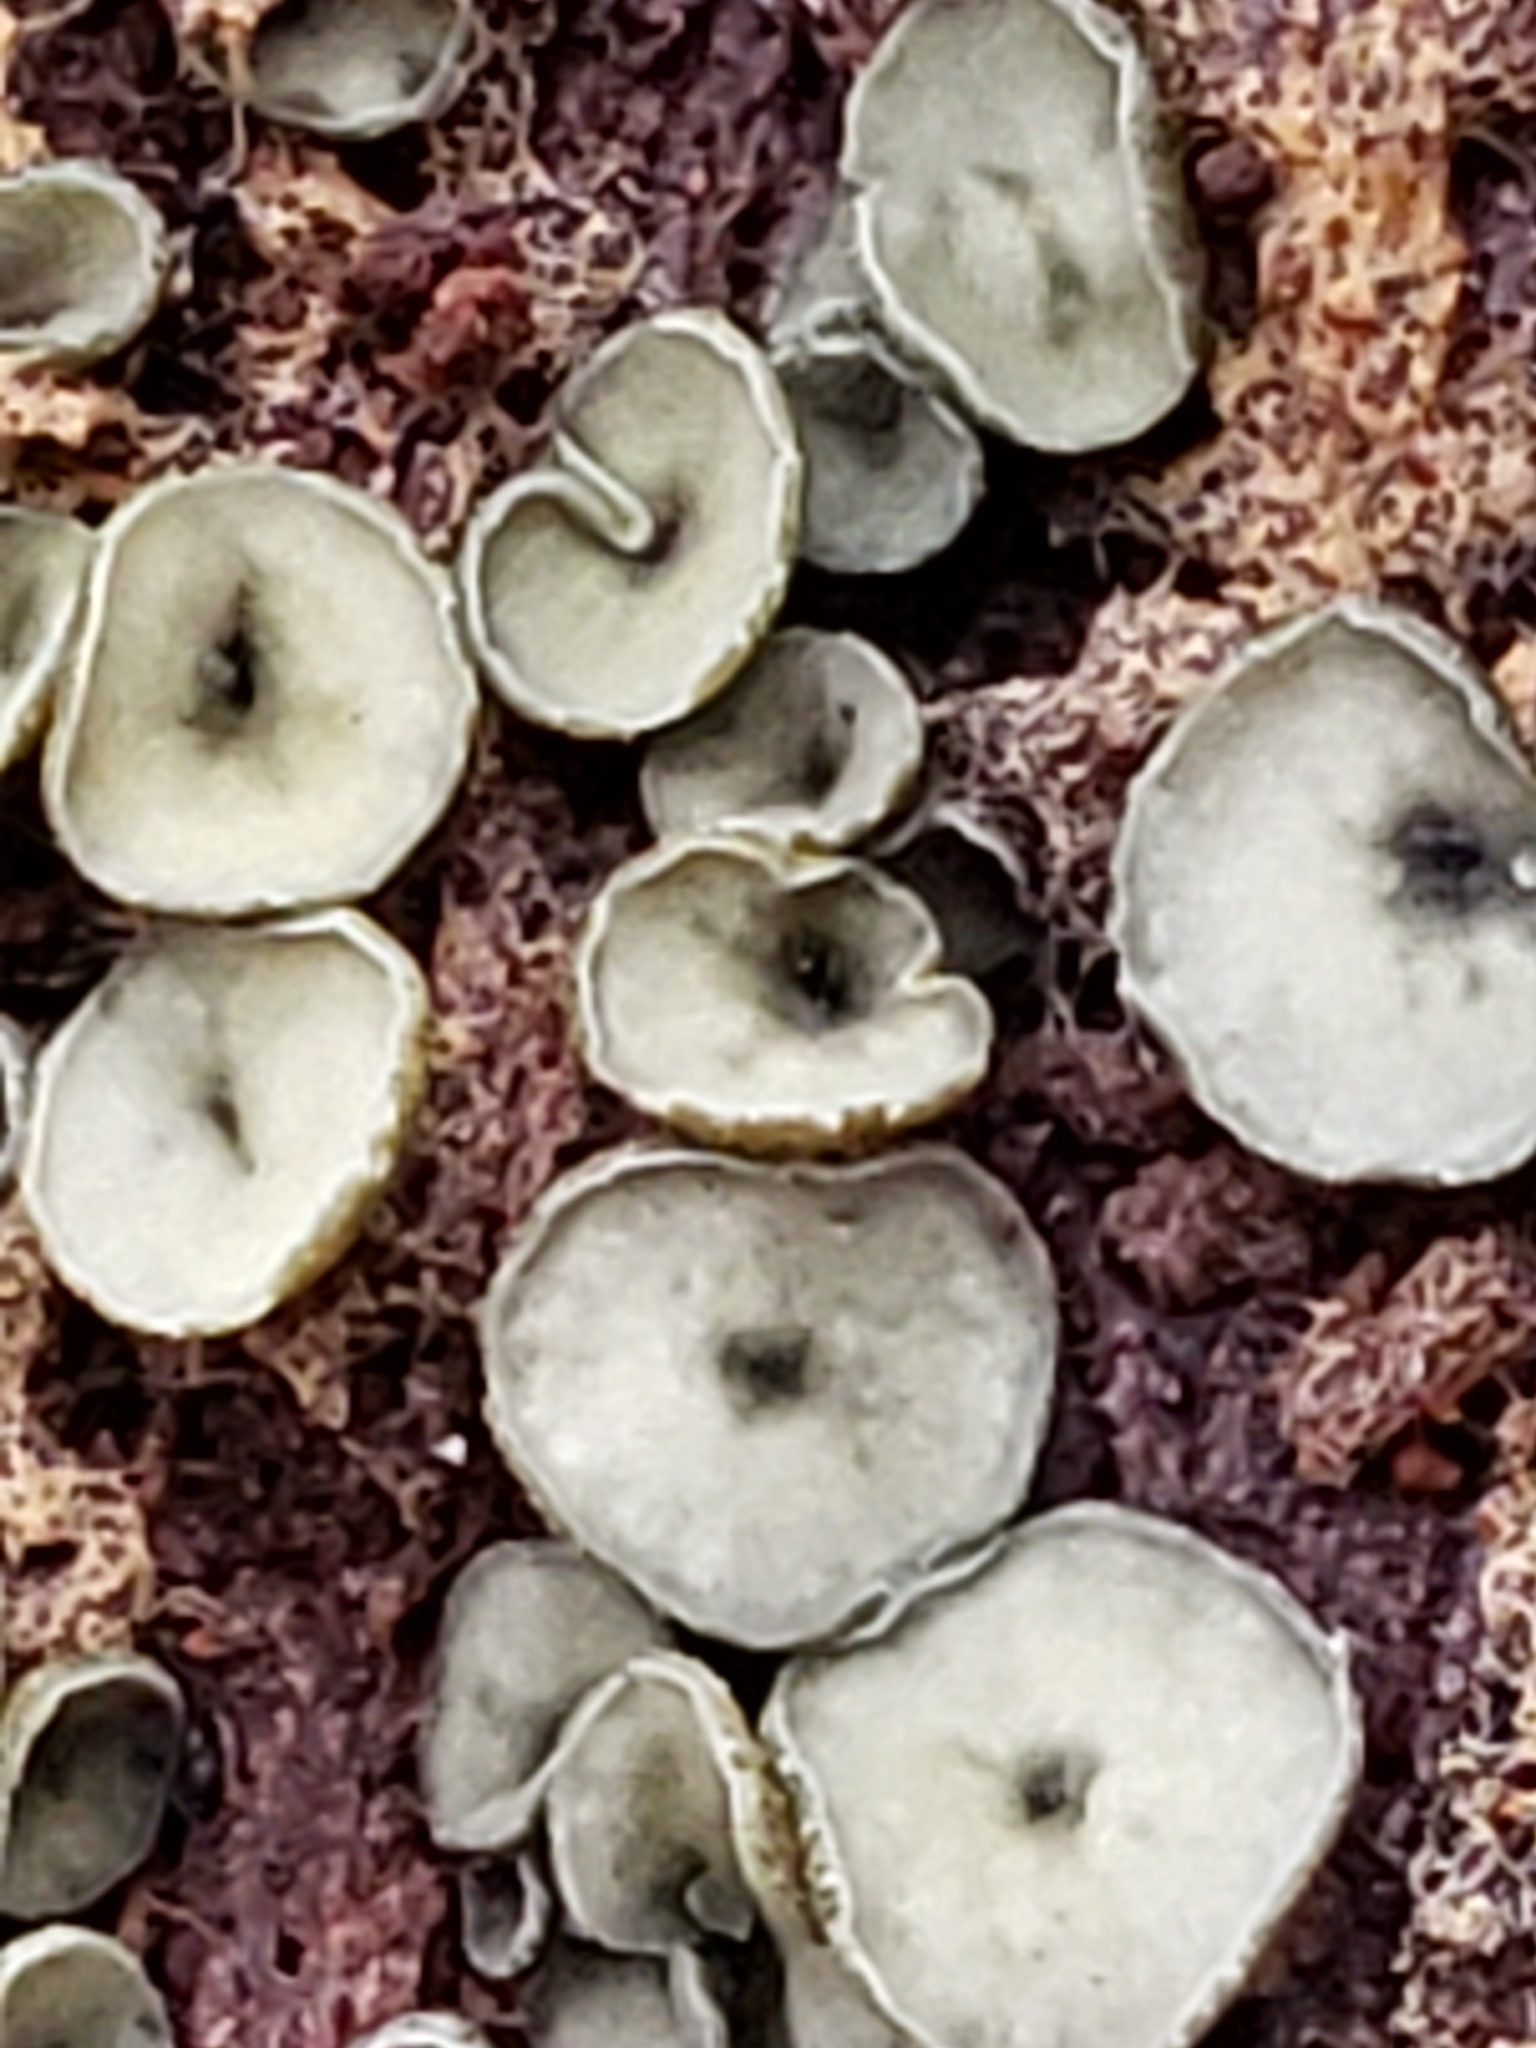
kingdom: Fungi
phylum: Ascomycota
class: Leotiomycetes
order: Helotiales
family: Chlorospleniaceae
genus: Chlorosplenium
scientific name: Chlorosplenium chlora
